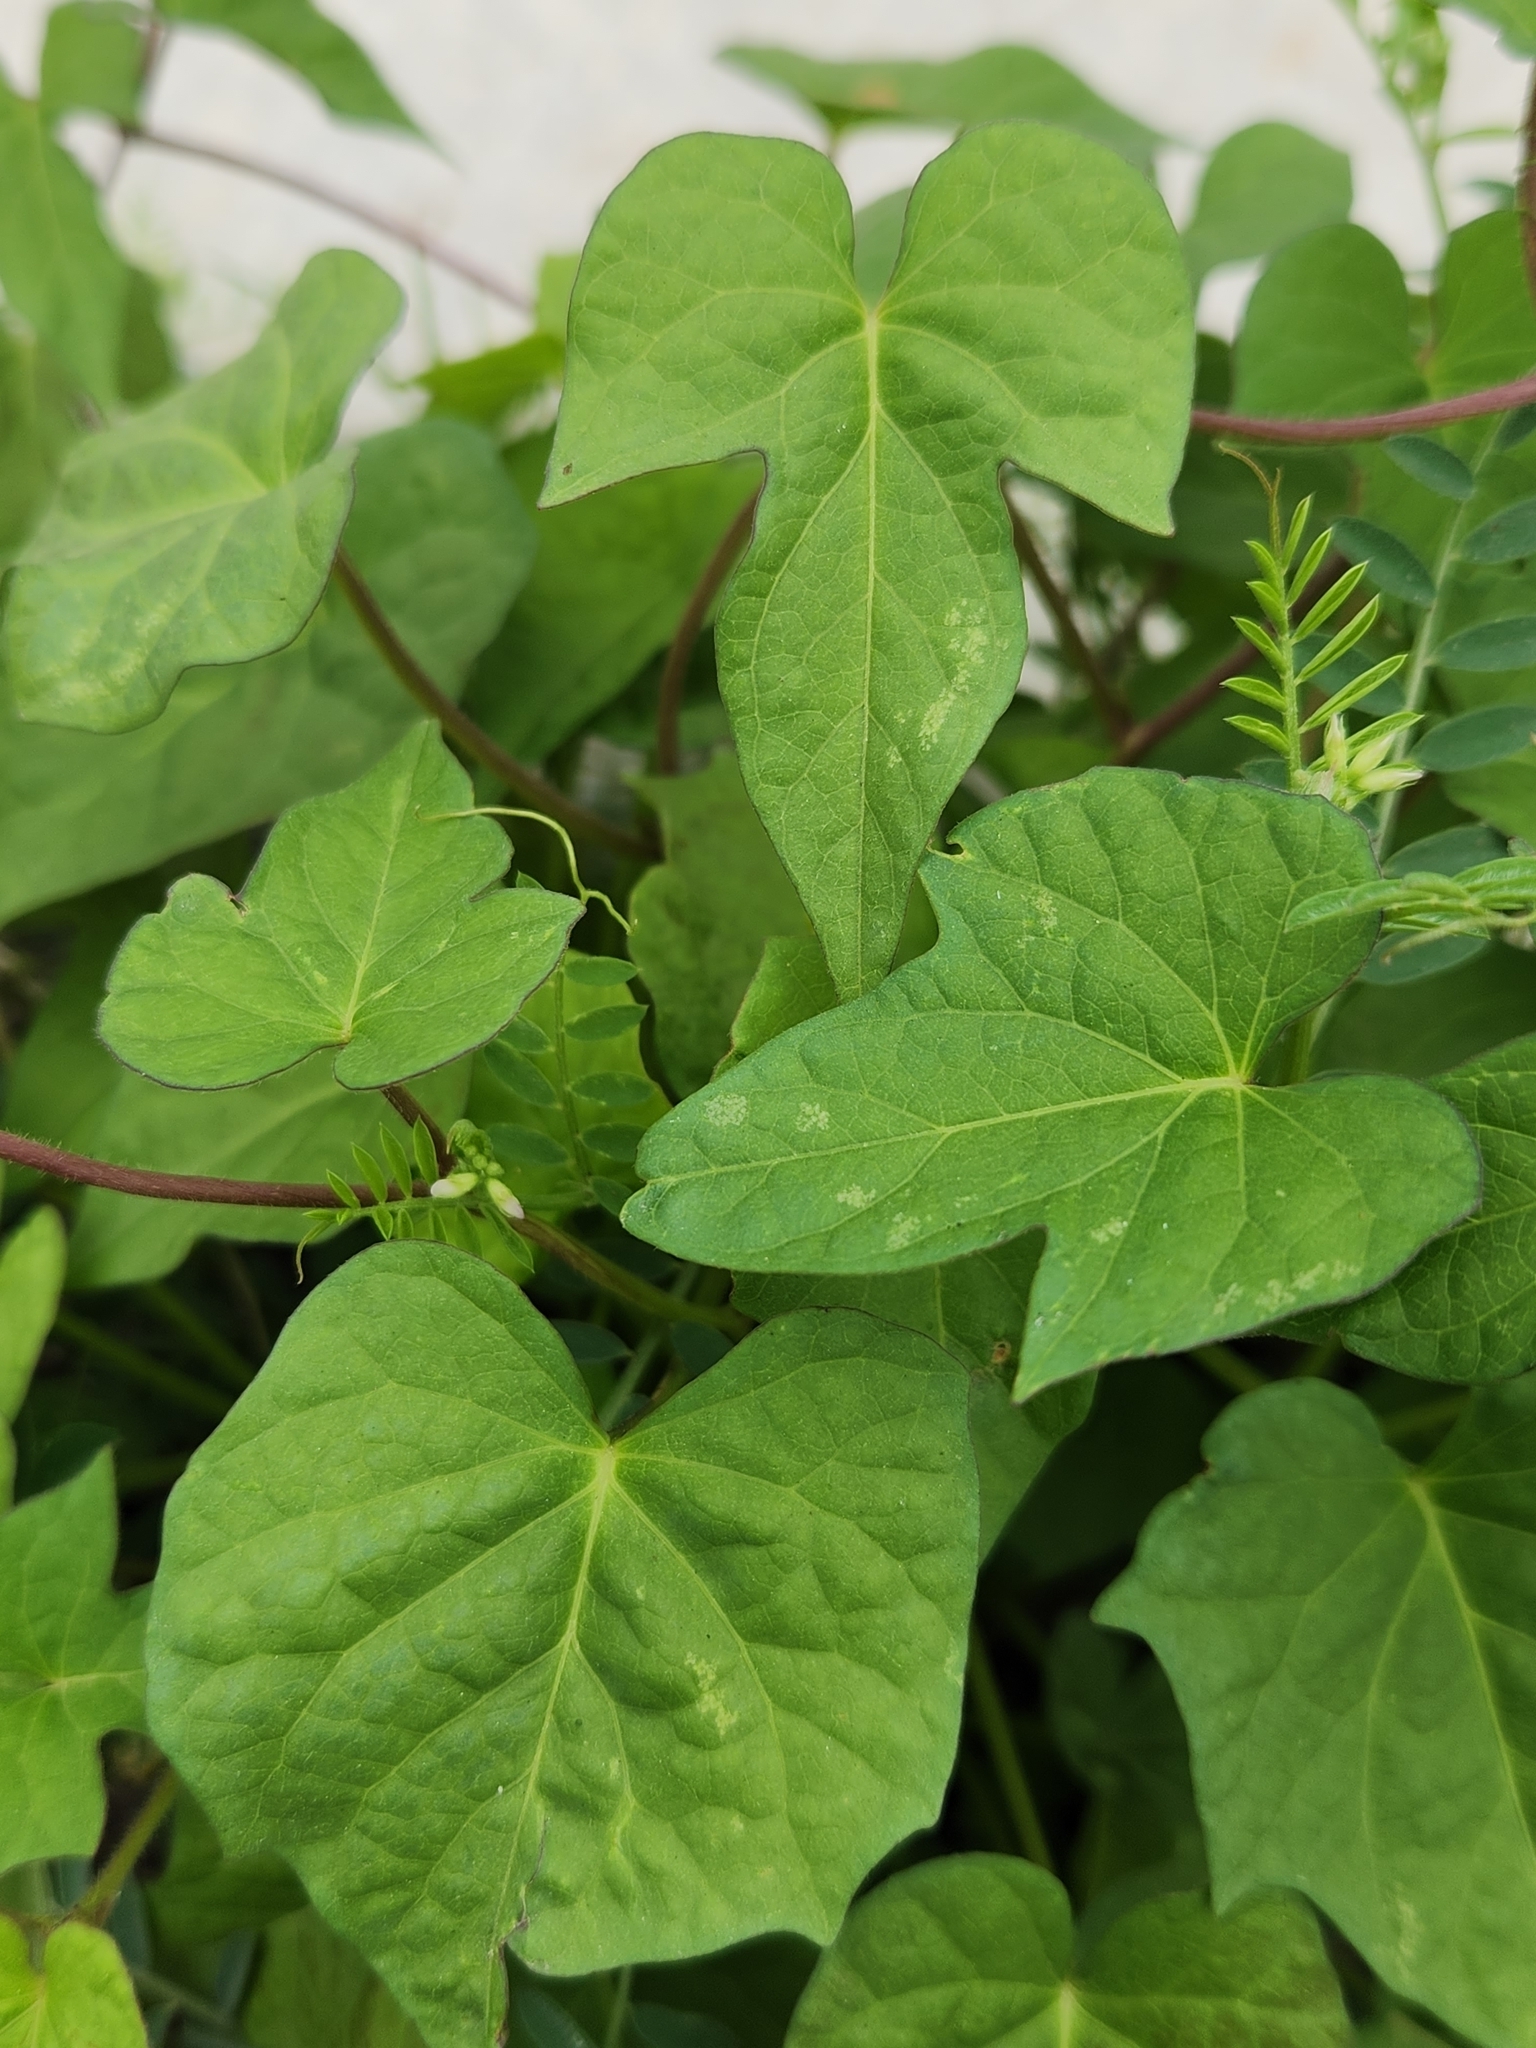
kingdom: Plantae
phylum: Tracheophyta
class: Magnoliopsida
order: Solanales
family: Convolvulaceae
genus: Ipomoea
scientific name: Ipomoea cordatotriloba
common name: Cotton morning glory
